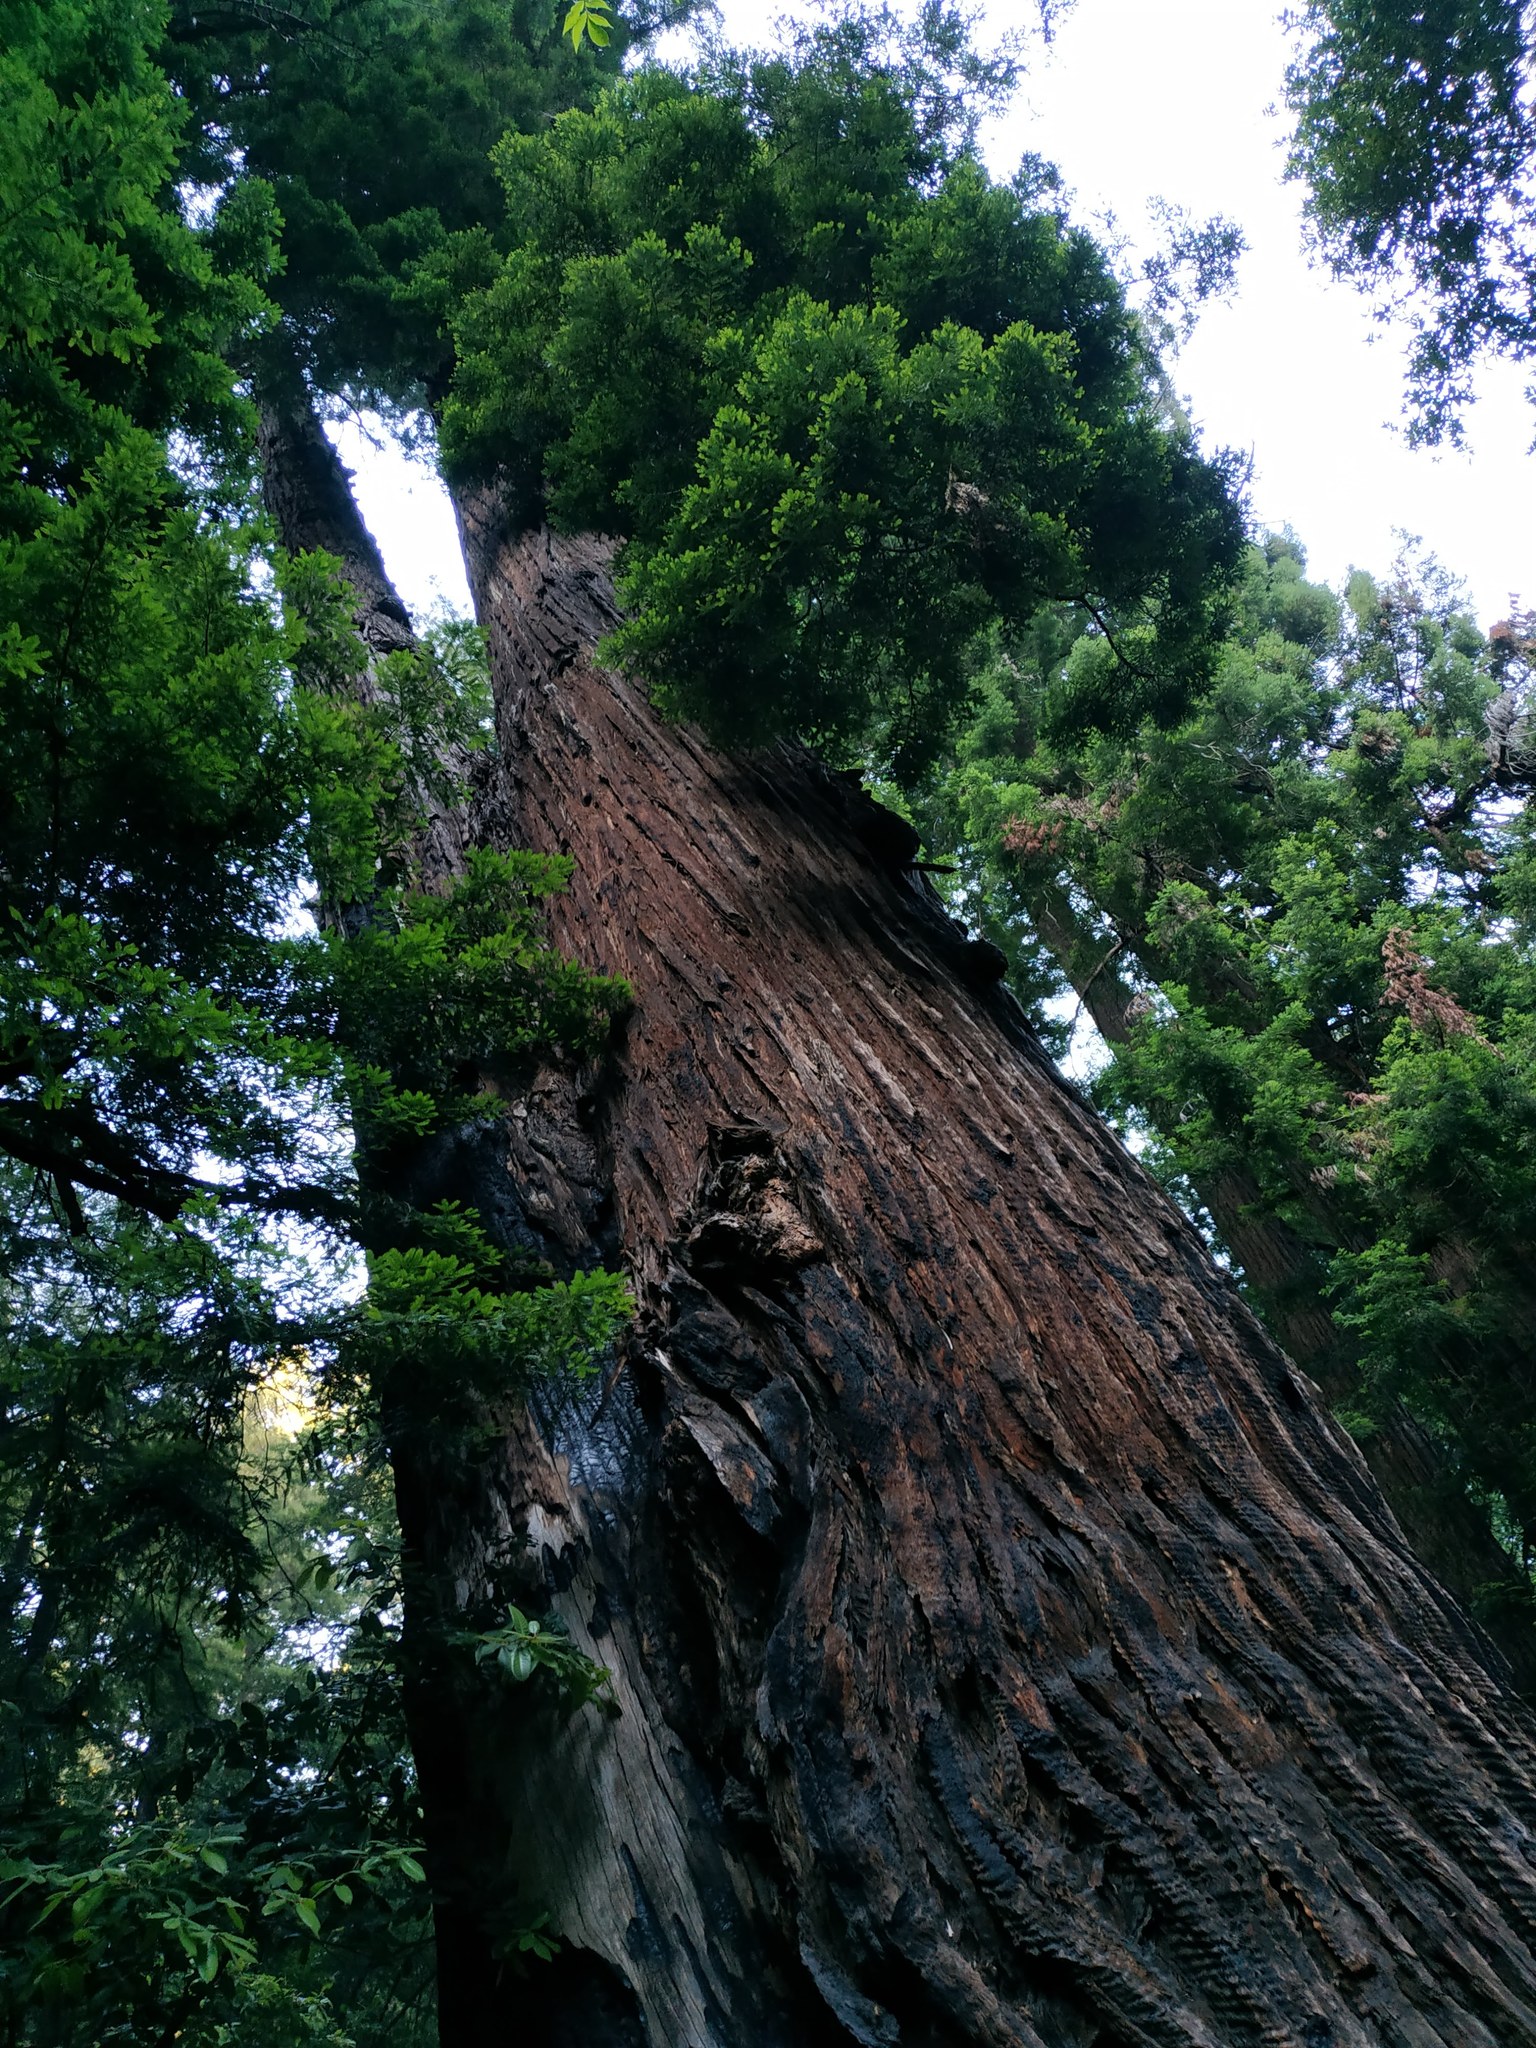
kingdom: Plantae
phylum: Tracheophyta
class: Pinopsida
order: Pinales
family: Cupressaceae
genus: Sequoia
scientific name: Sequoia sempervirens
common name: Coast redwood
